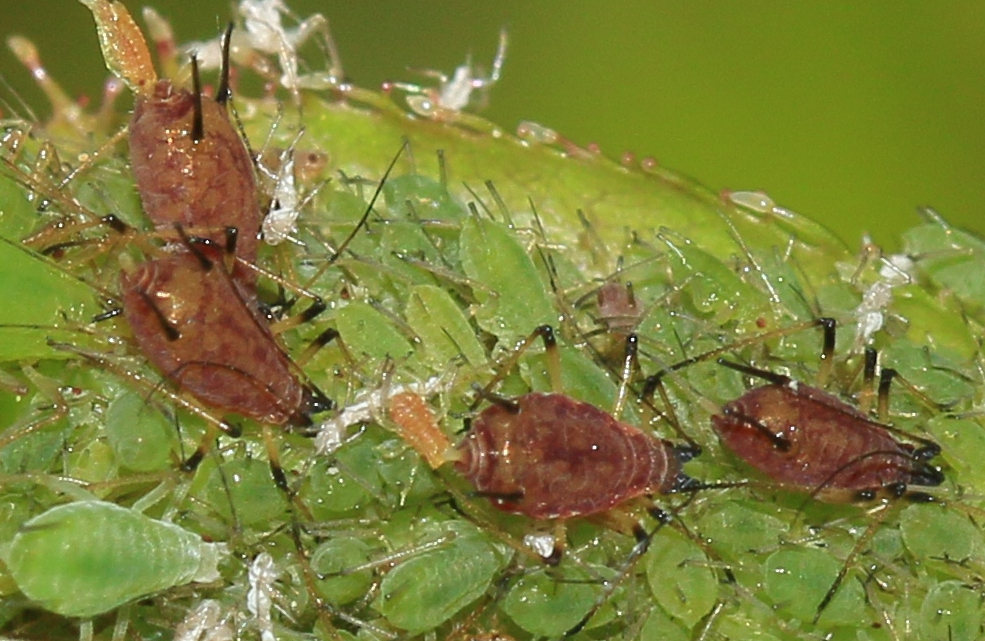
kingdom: Animalia
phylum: Arthropoda
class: Insecta
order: Hemiptera
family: Aphididae
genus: Macrosiphum
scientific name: Macrosiphum rosae
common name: Rose aphid
